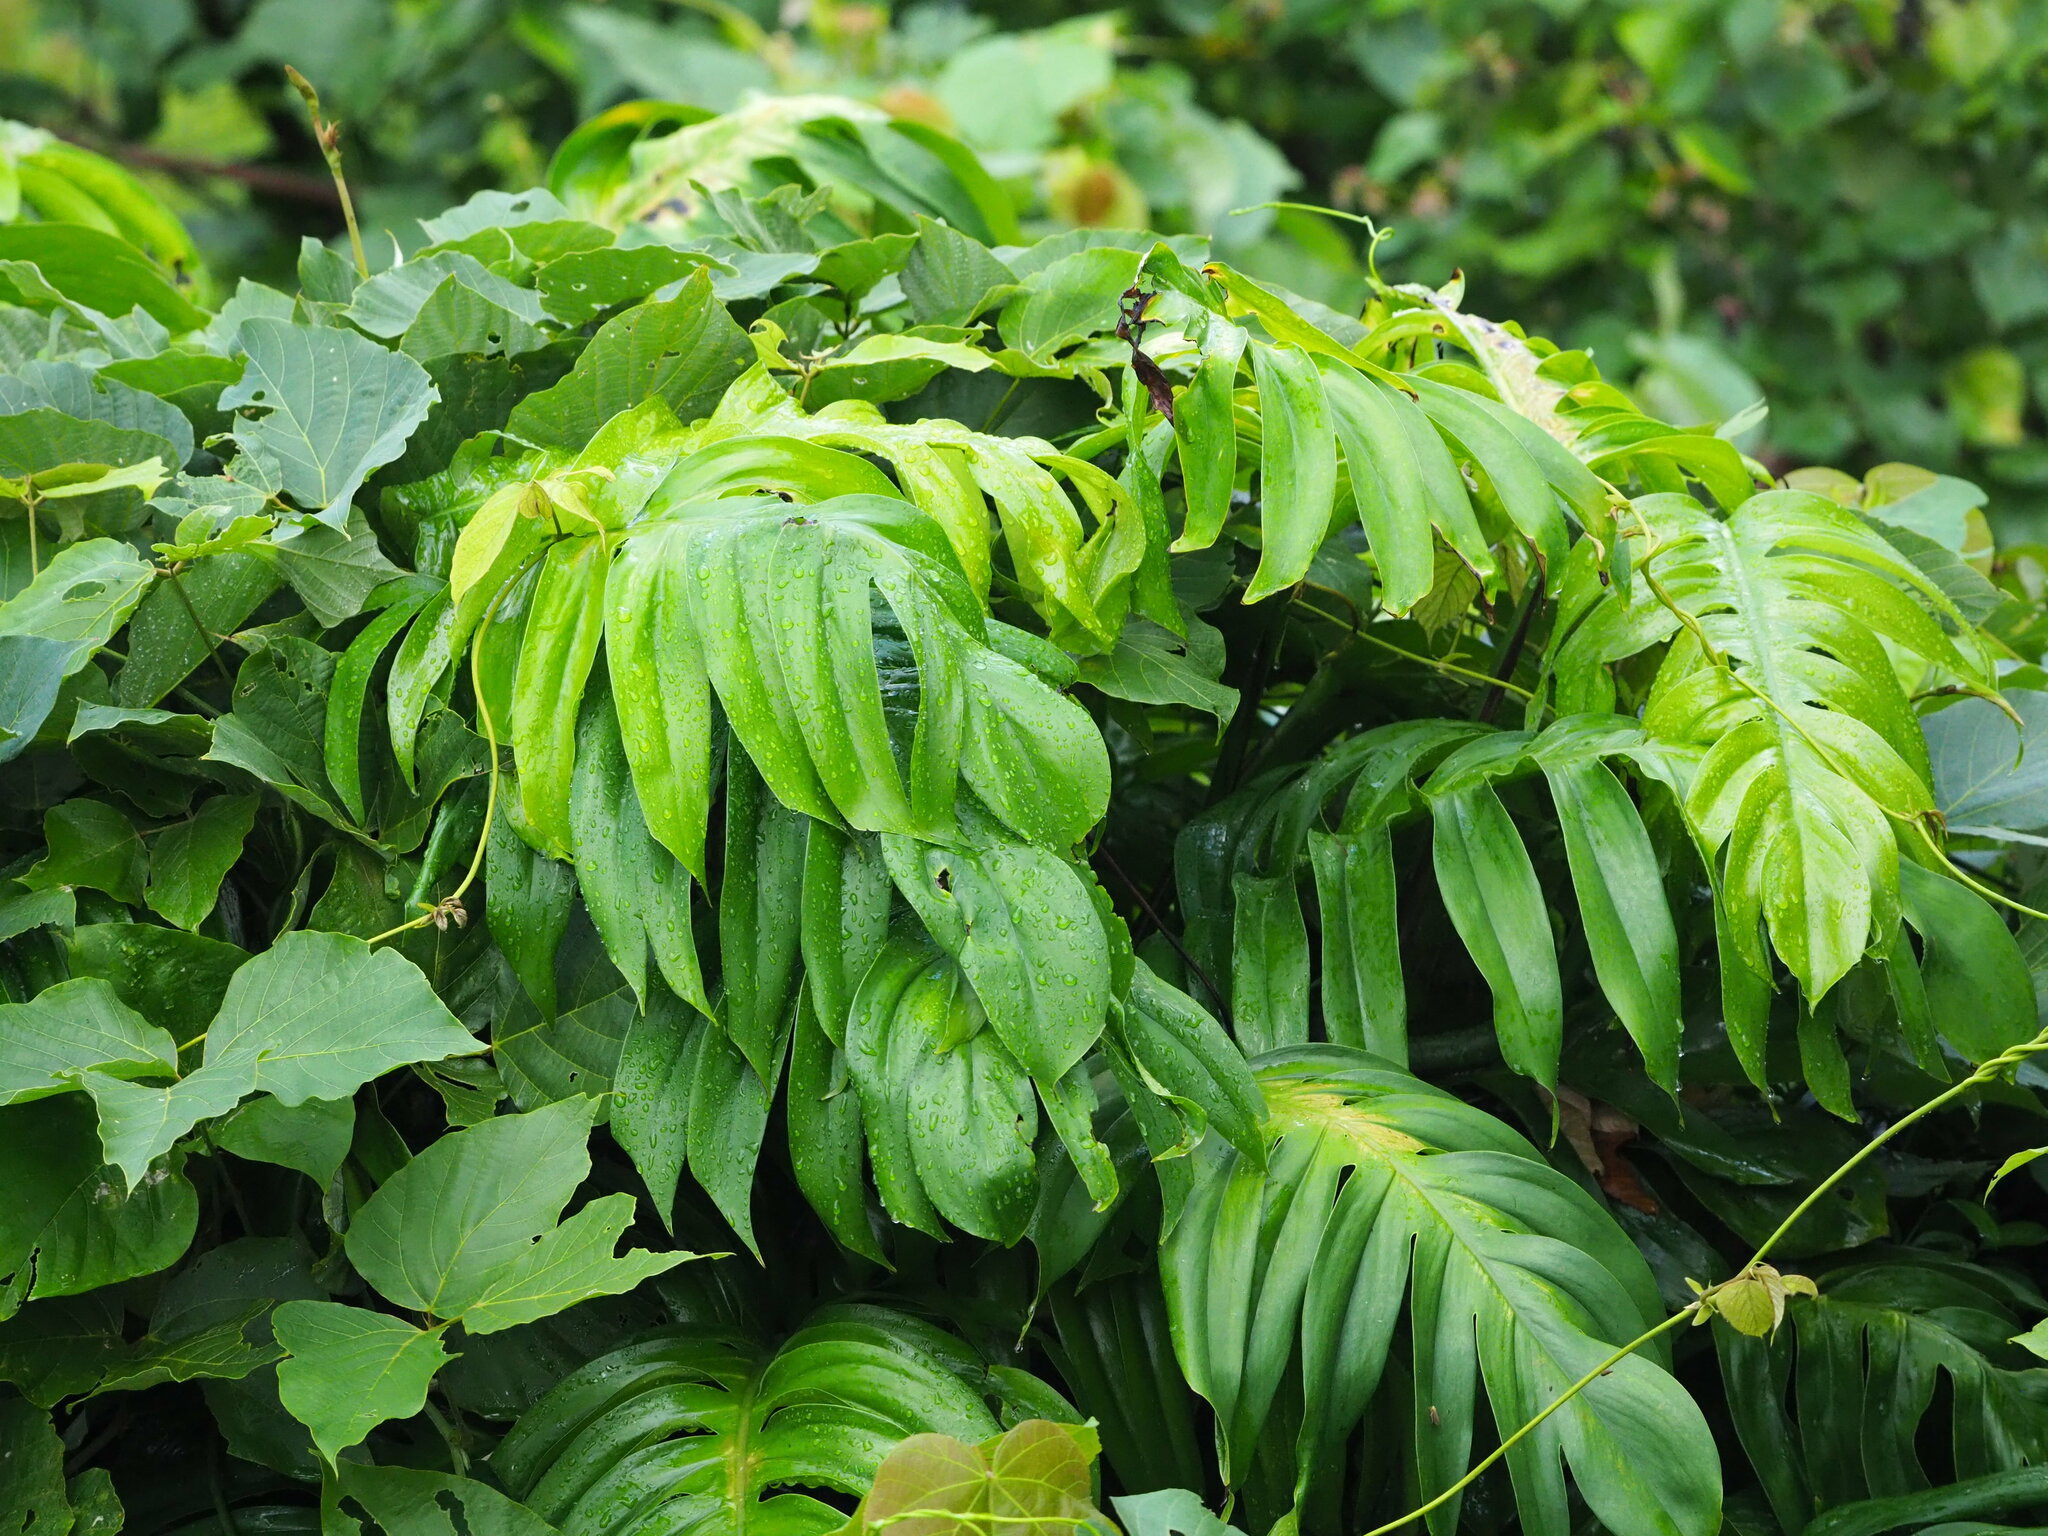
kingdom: Plantae
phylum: Tracheophyta
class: Liliopsida
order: Alismatales
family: Araceae
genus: Epipremnum
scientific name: Epipremnum pinnatum
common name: Centipede tongavine
